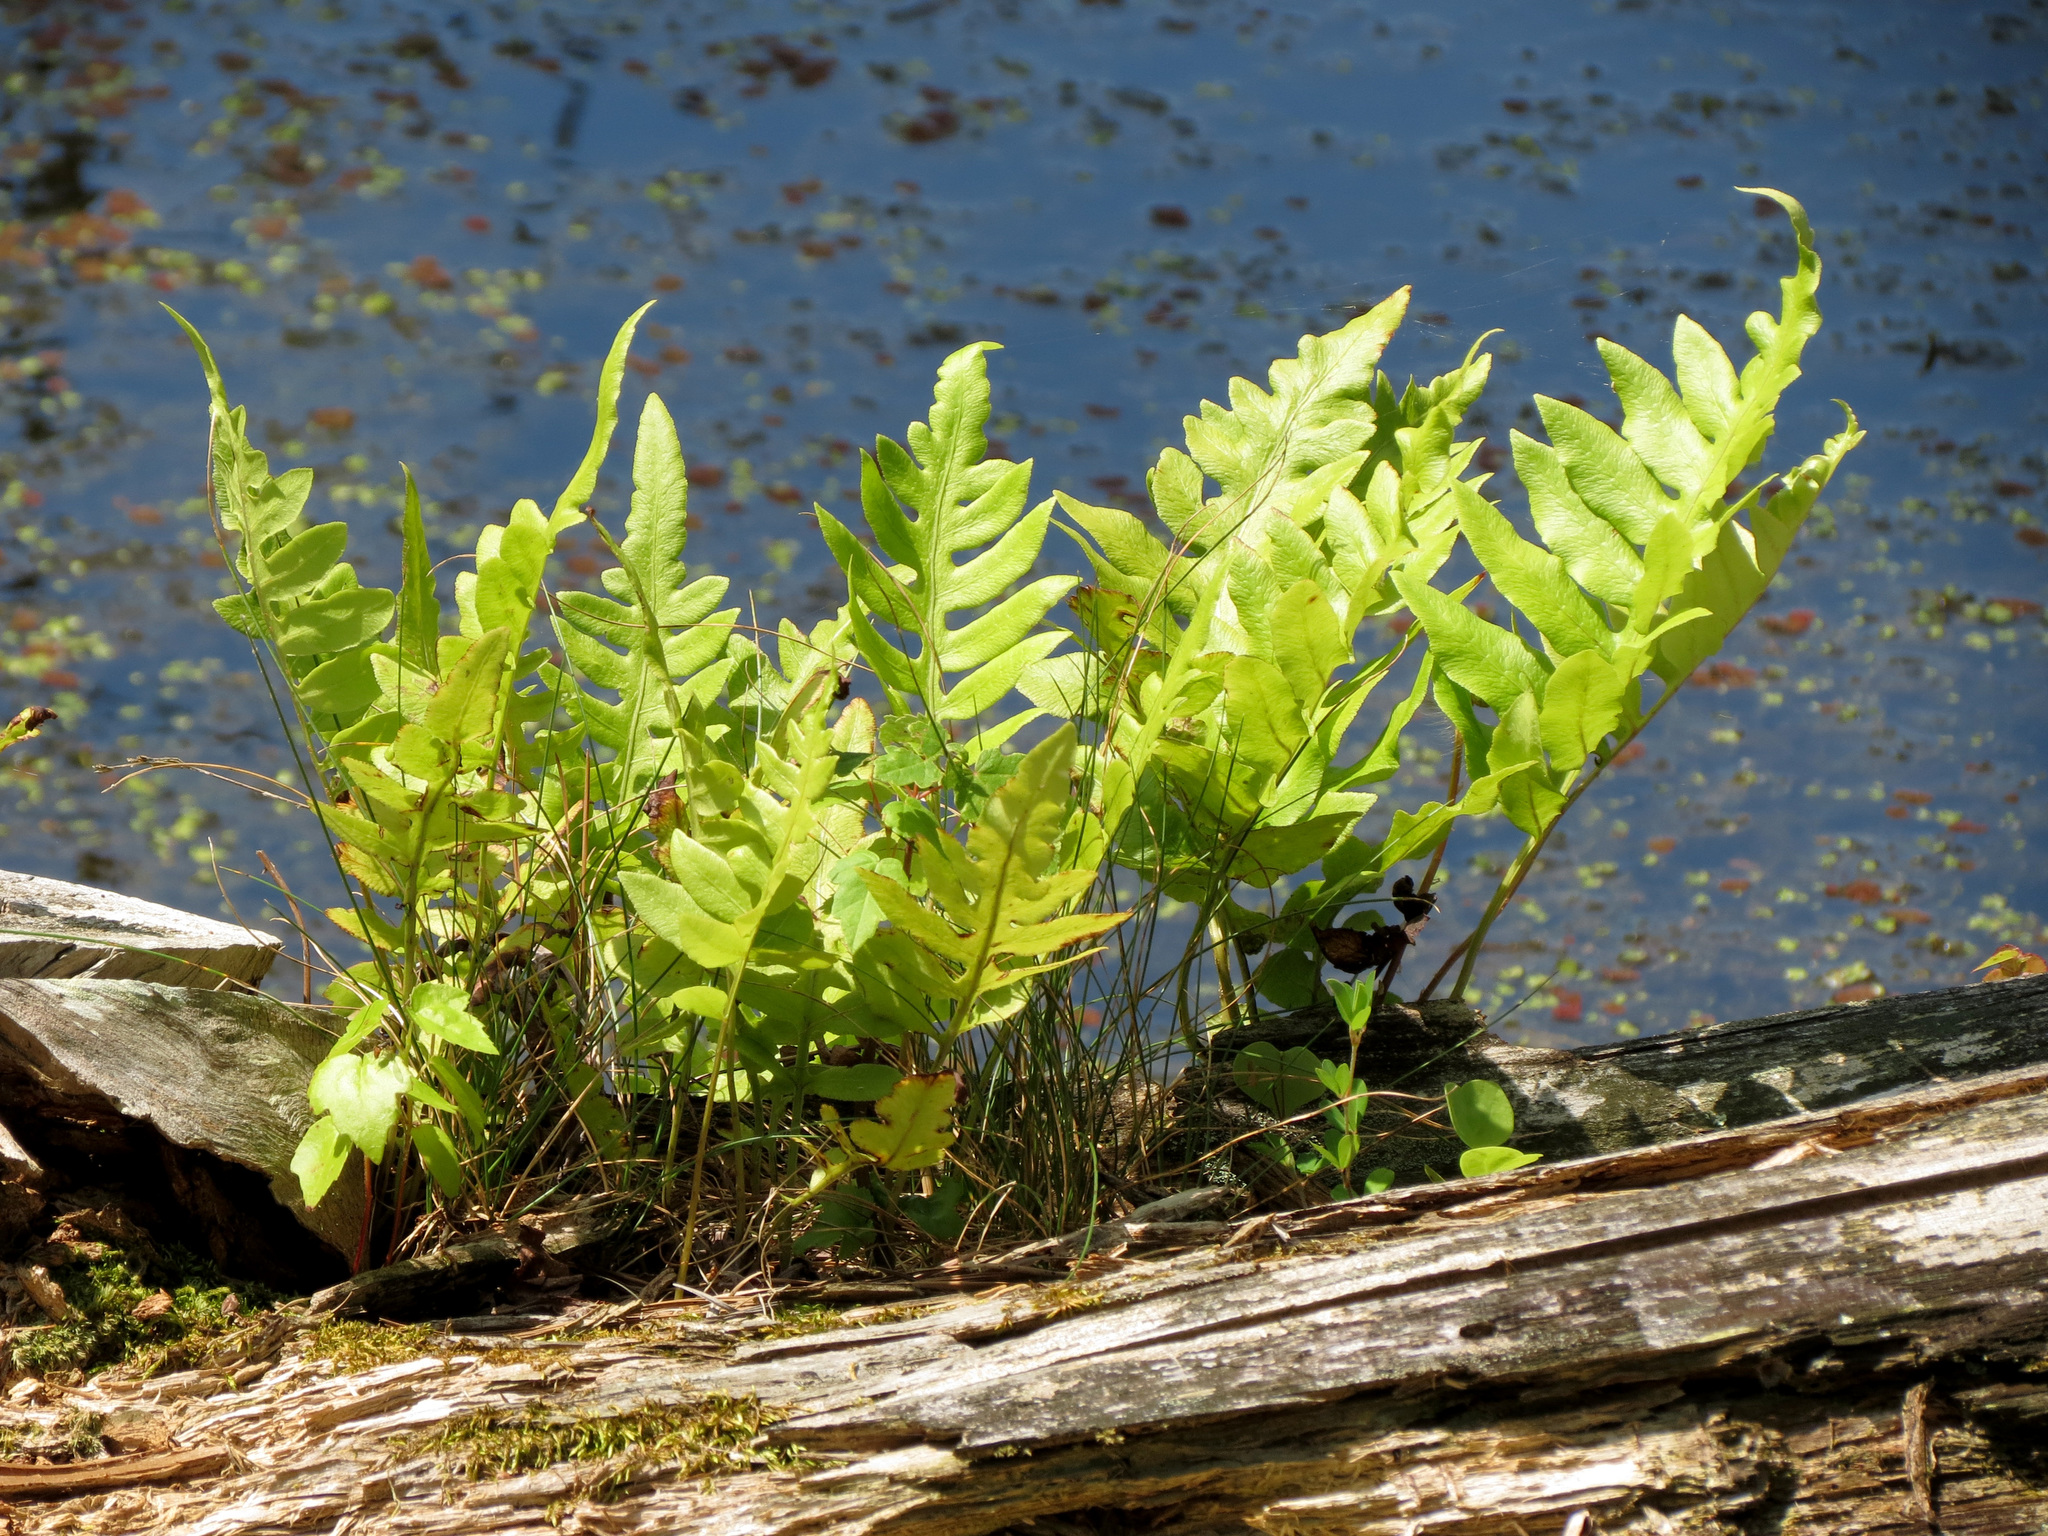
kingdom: Plantae
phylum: Tracheophyta
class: Polypodiopsida
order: Polypodiales
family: Blechnaceae
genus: Lorinseria
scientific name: Lorinseria areolata
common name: Dwarf chain fern
